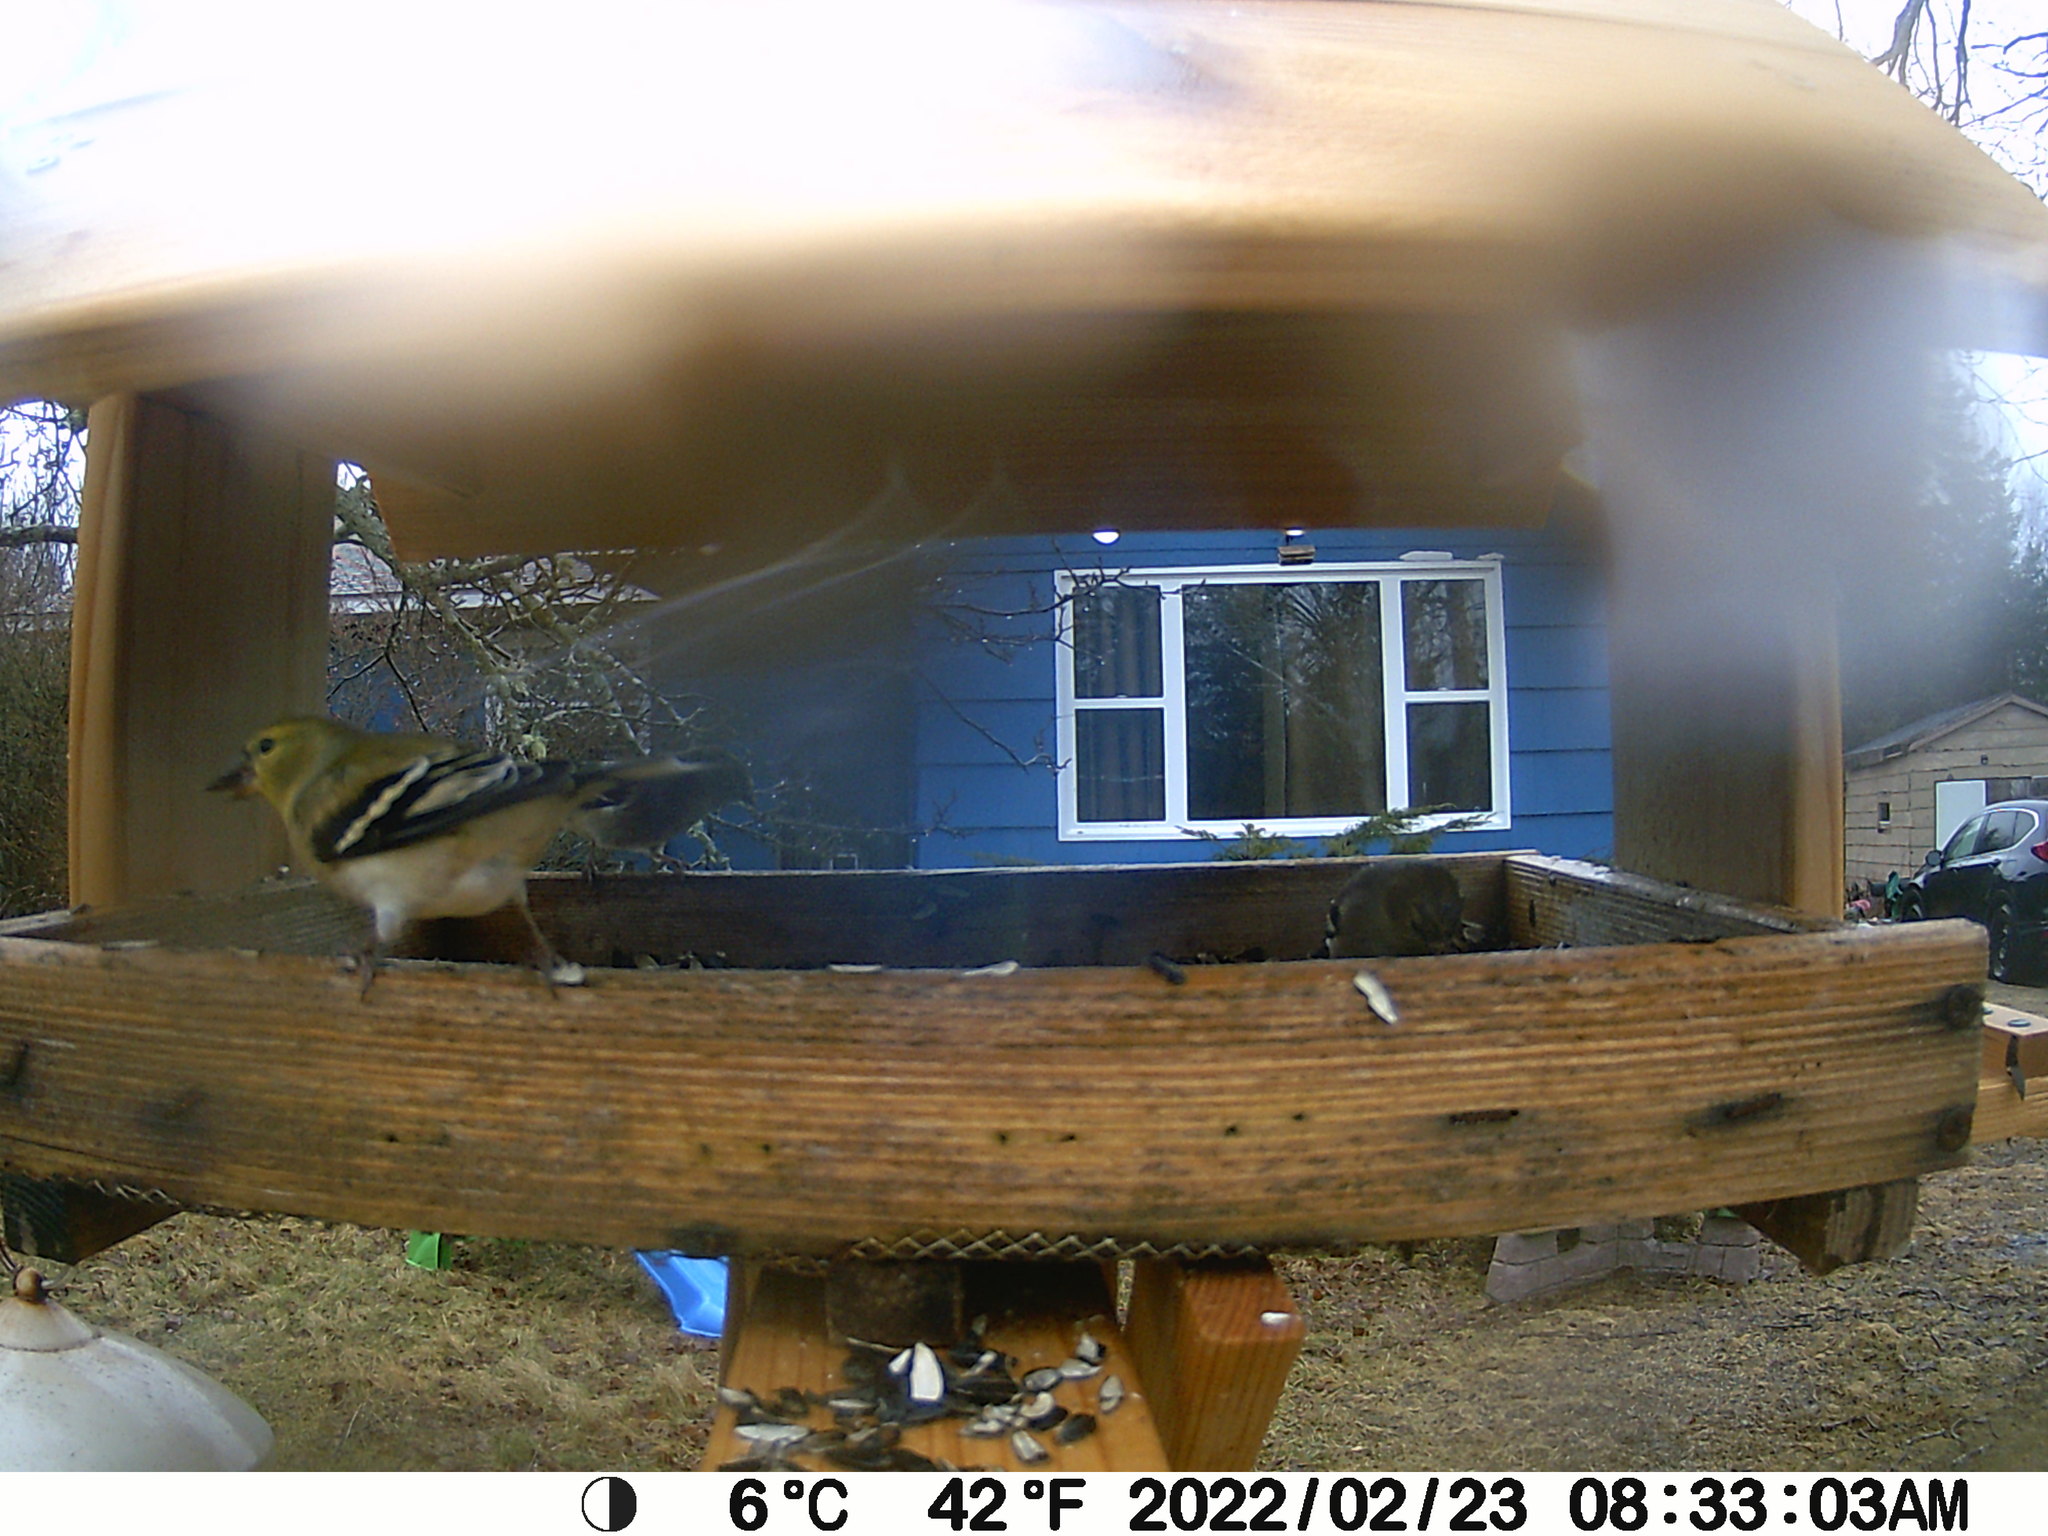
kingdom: Animalia
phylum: Chordata
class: Aves
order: Passeriformes
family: Fringillidae
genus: Spinus
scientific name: Spinus tristis
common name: American goldfinch
